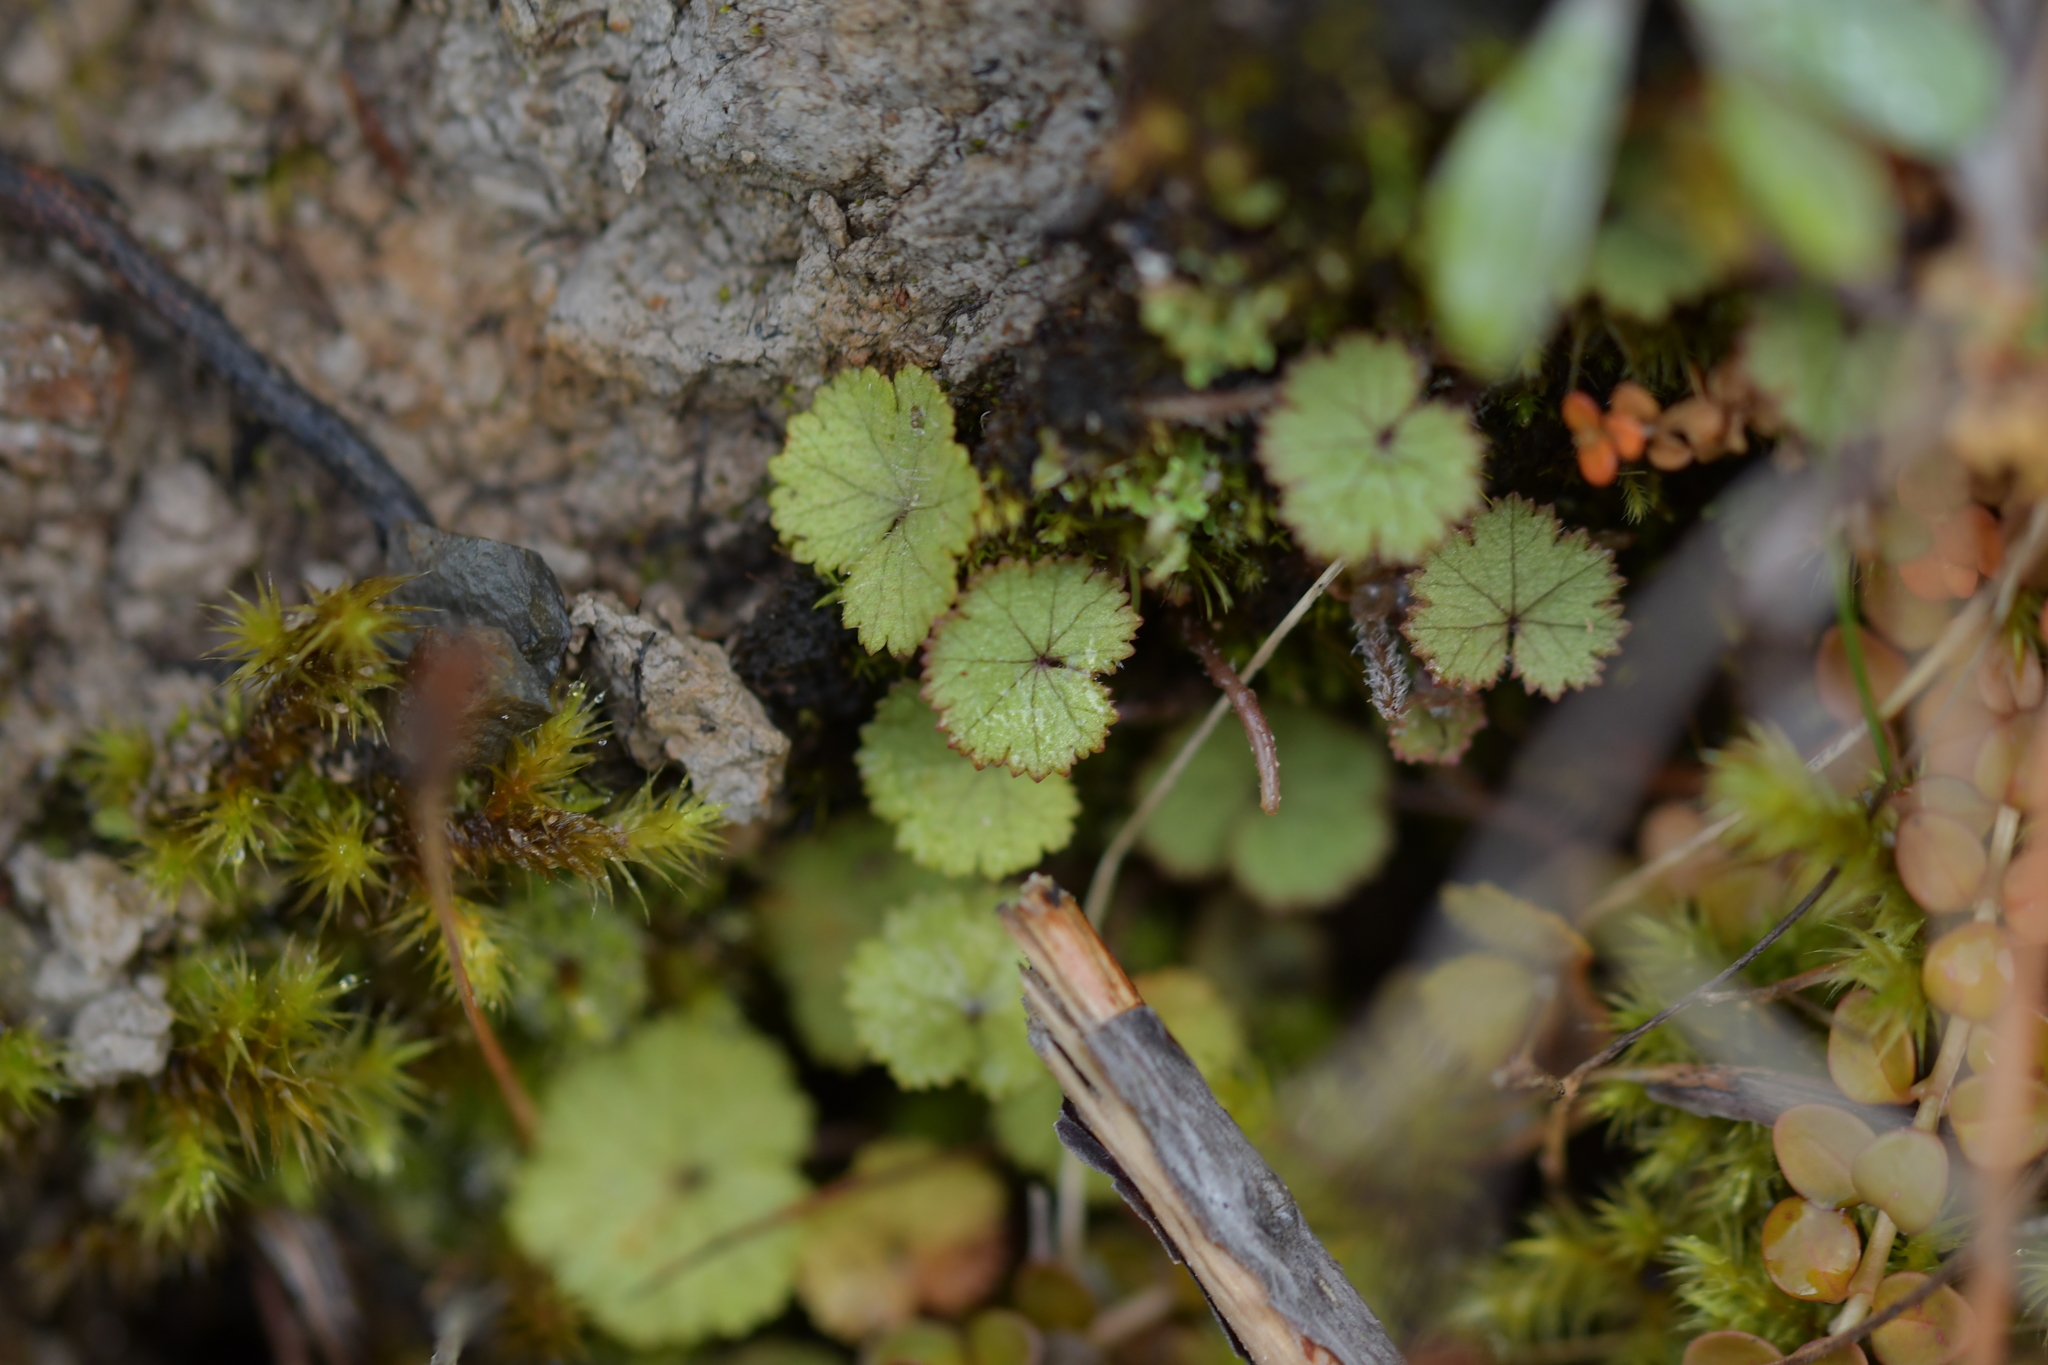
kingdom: Plantae
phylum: Tracheophyta
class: Magnoliopsida
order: Apiales
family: Araliaceae
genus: Hydrocotyle
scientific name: Hydrocotyle moschata
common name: Hairy pennywort
